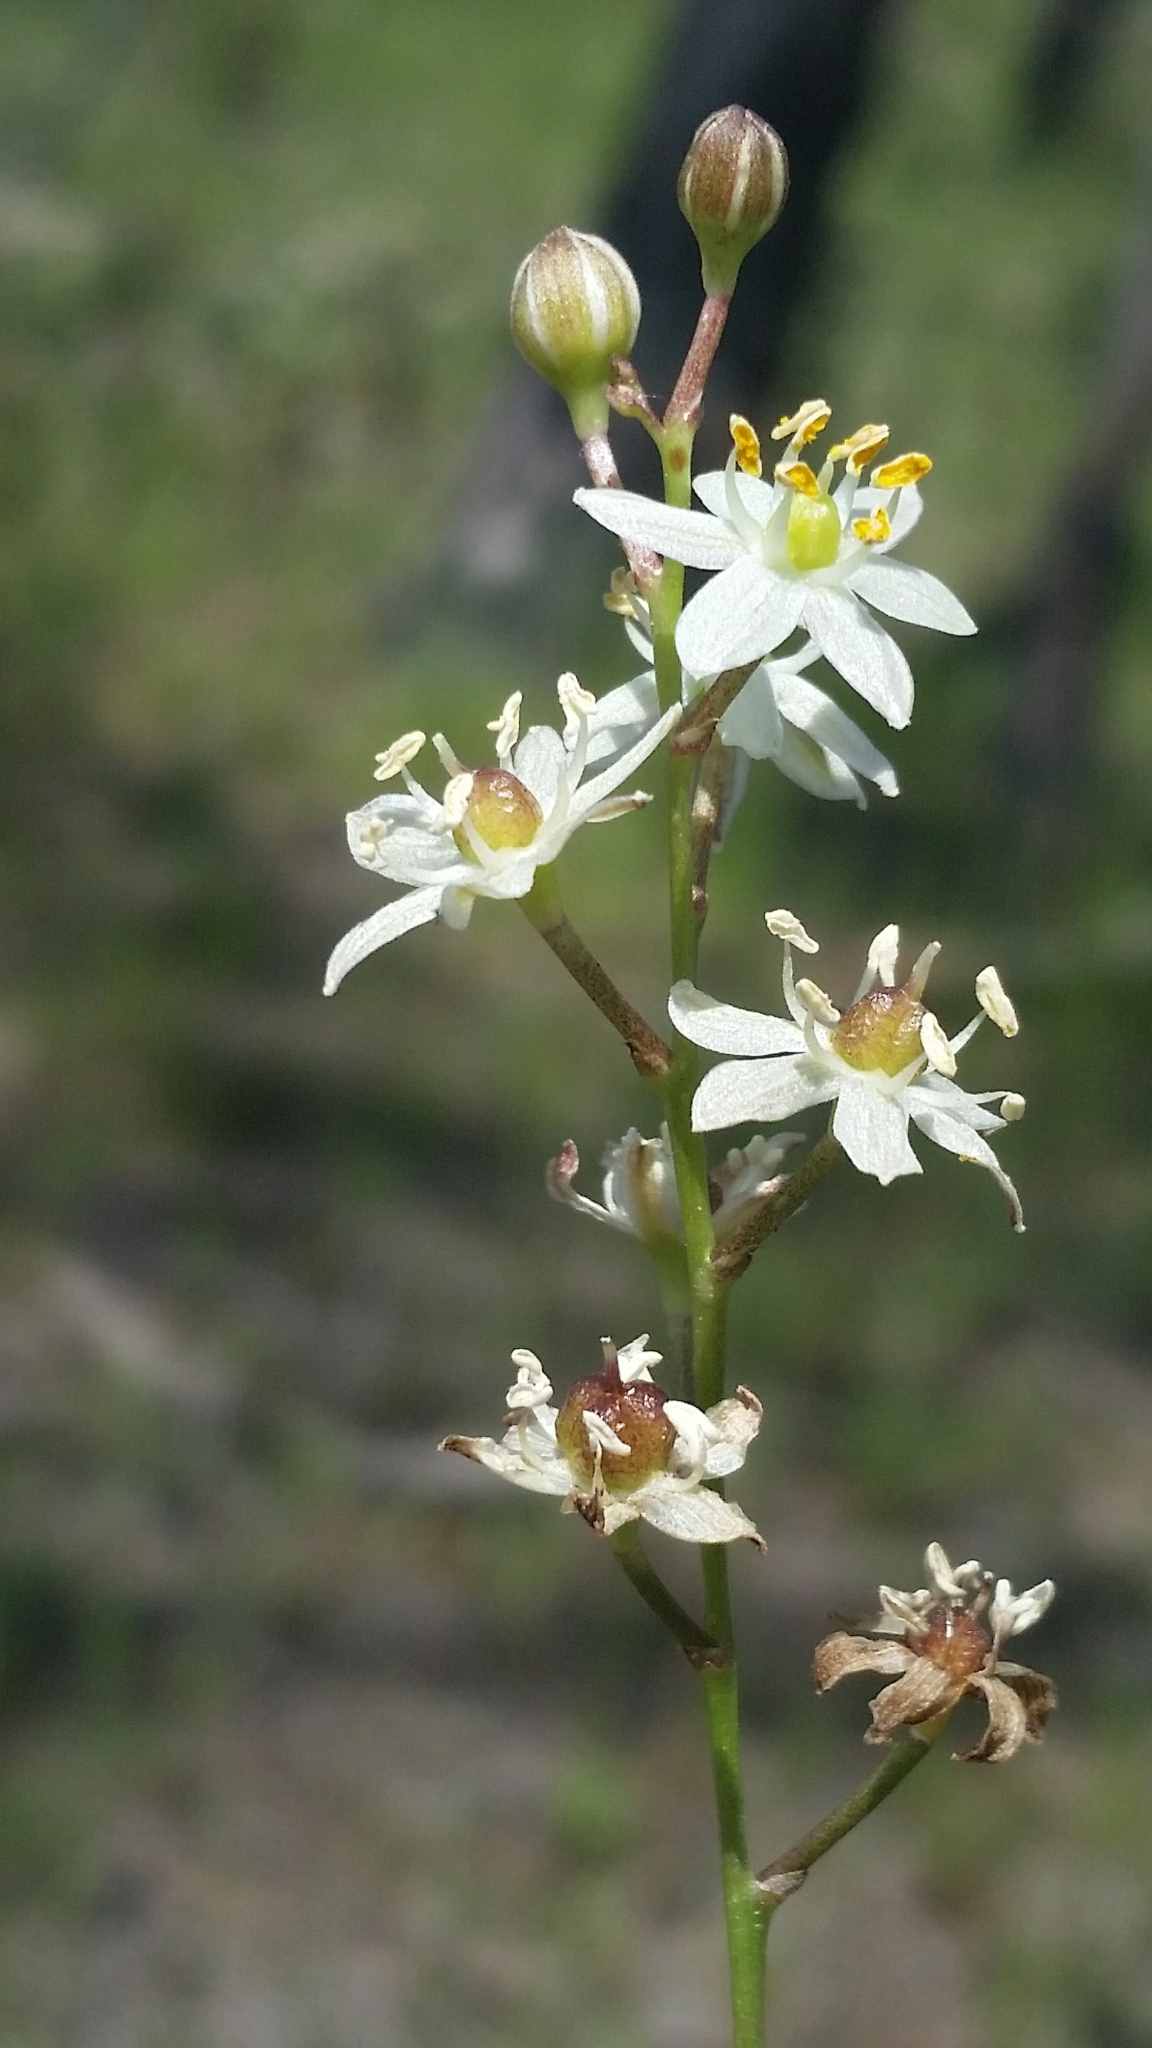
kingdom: Plantae
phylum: Tracheophyta
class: Liliopsida
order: Asparagales
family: Asparagaceae
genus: Schoenolirion
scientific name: Schoenolirion albiflorum
